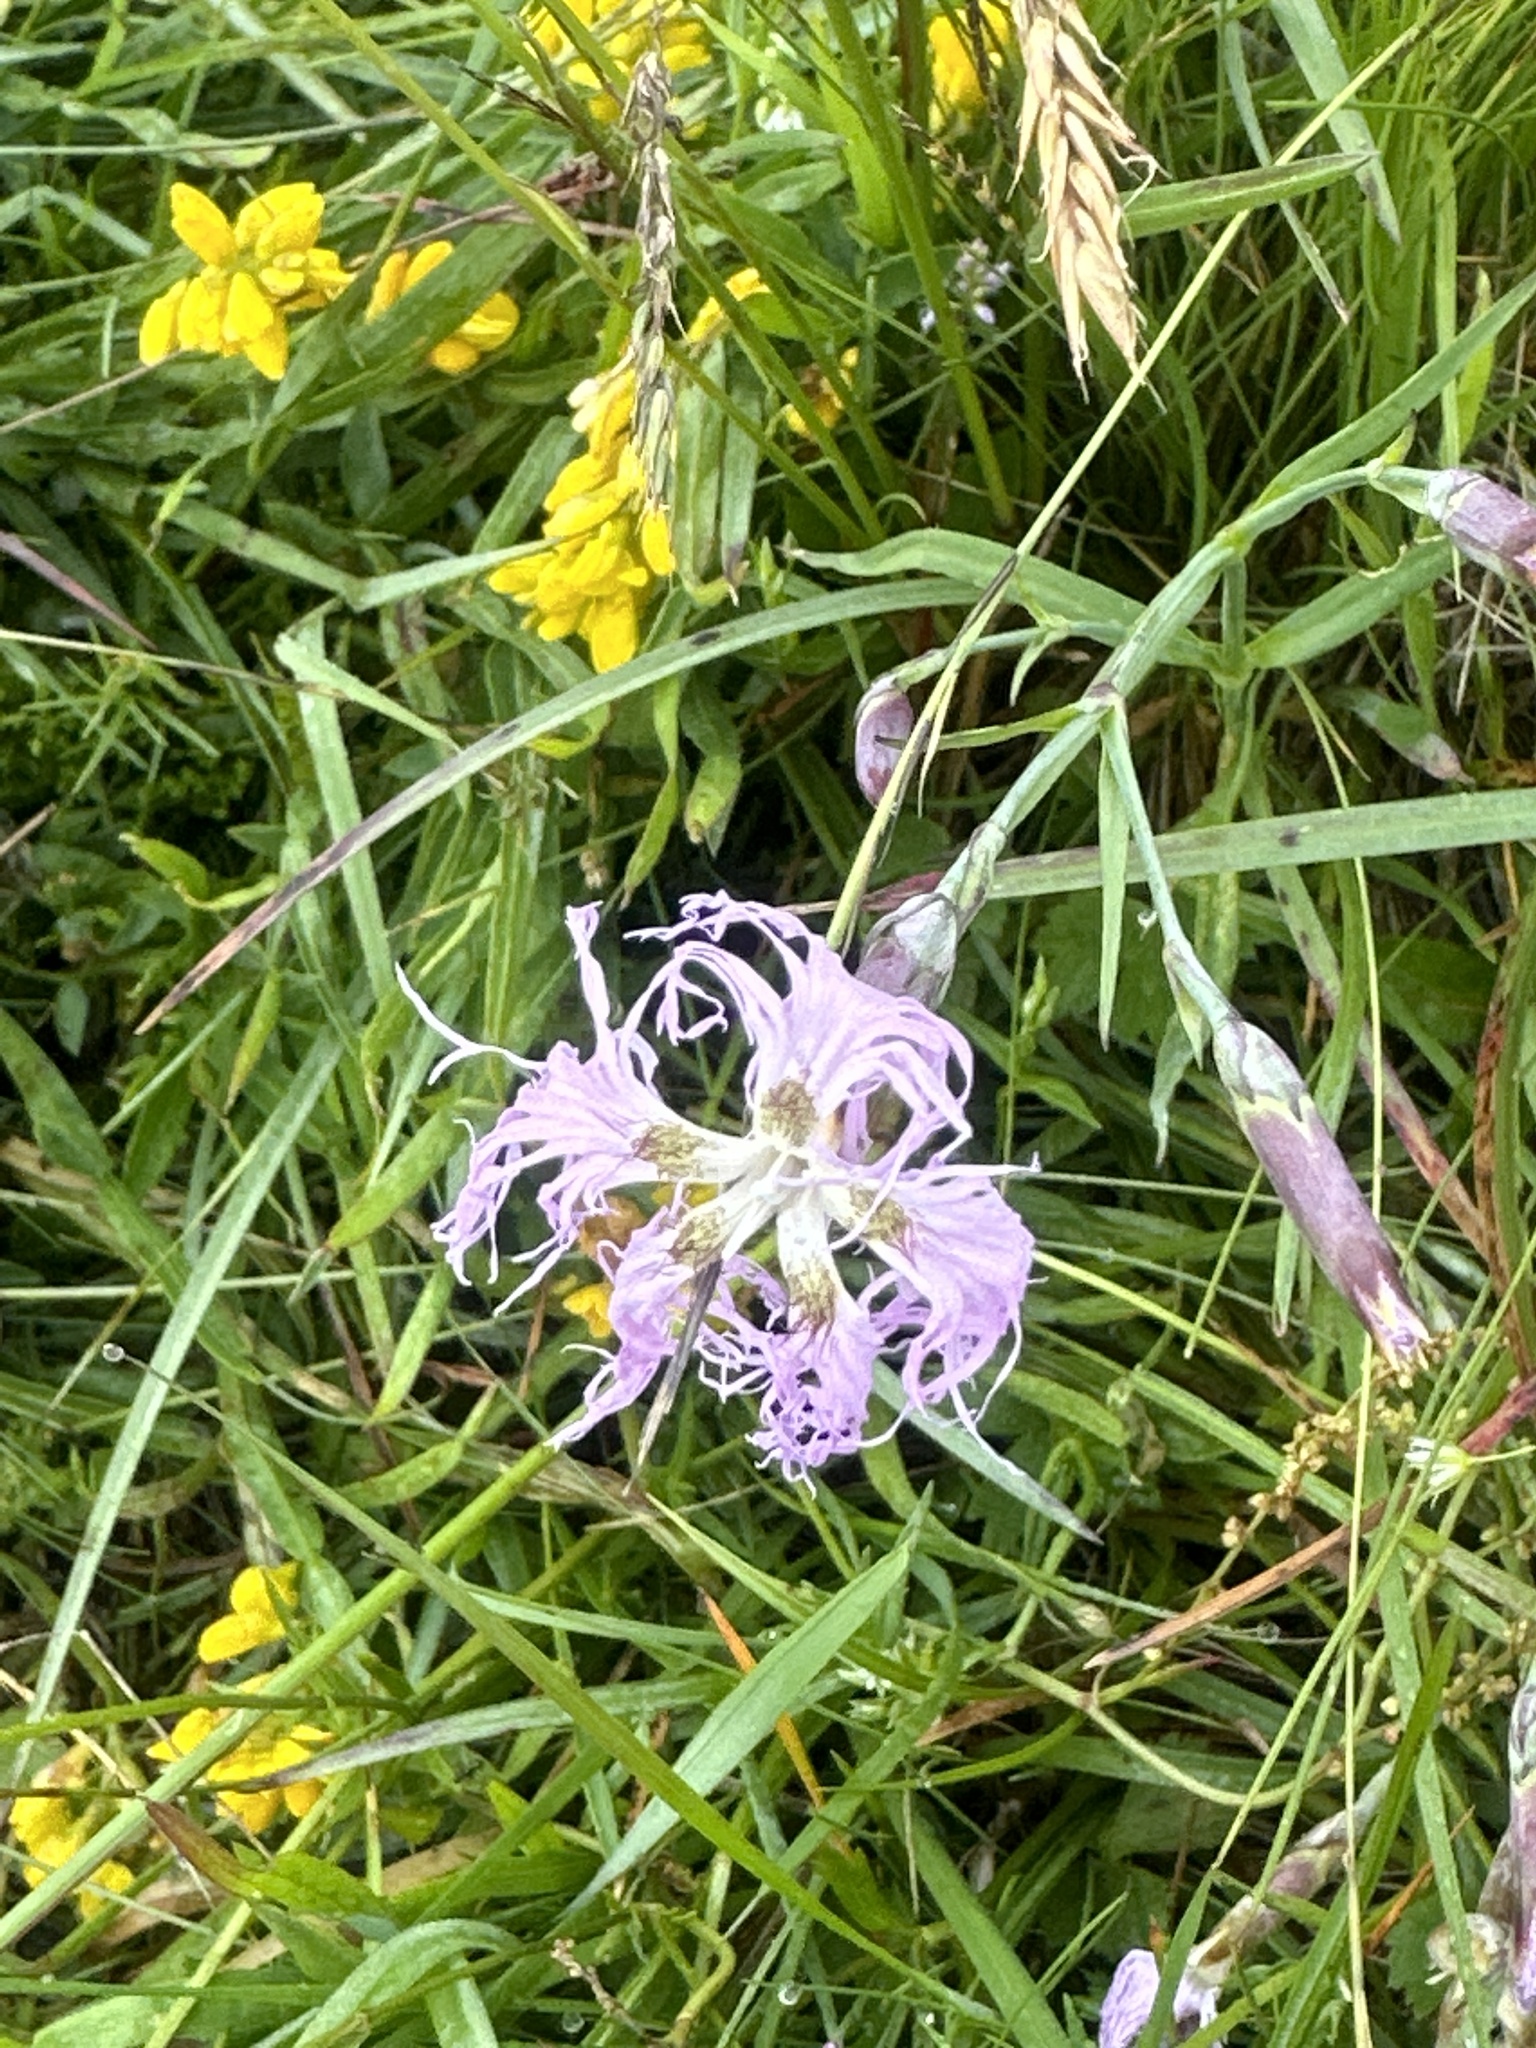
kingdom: Plantae
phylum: Tracheophyta
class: Magnoliopsida
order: Caryophyllales
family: Caryophyllaceae
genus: Dianthus
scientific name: Dianthus superbus
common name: Fringed pink
